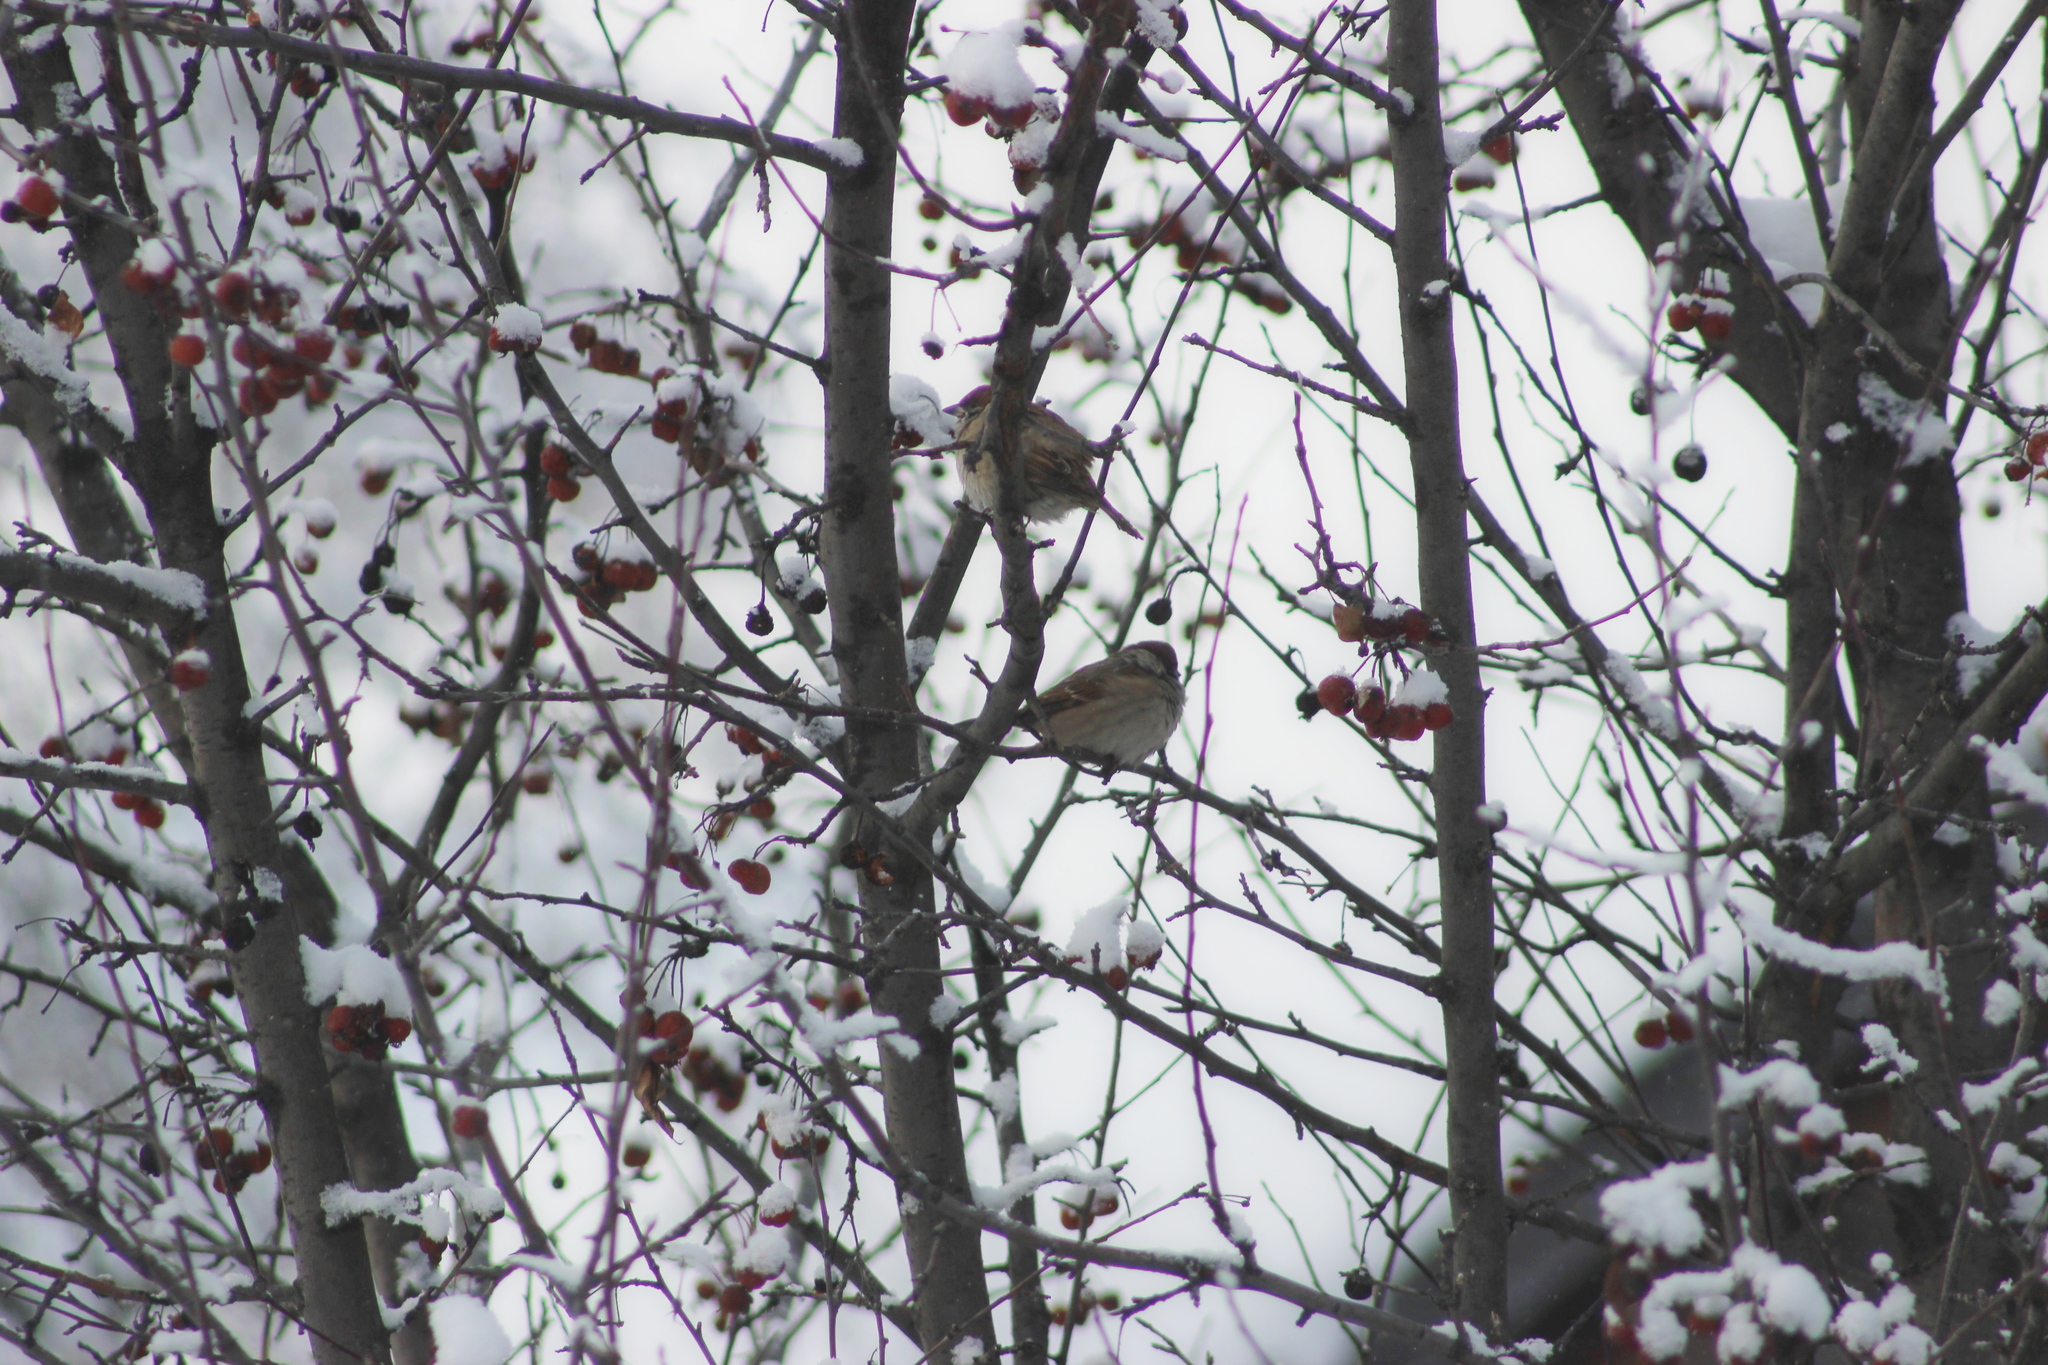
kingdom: Animalia
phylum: Chordata
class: Aves
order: Passeriformes
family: Passeridae
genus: Passer
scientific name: Passer montanus
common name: Eurasian tree sparrow
